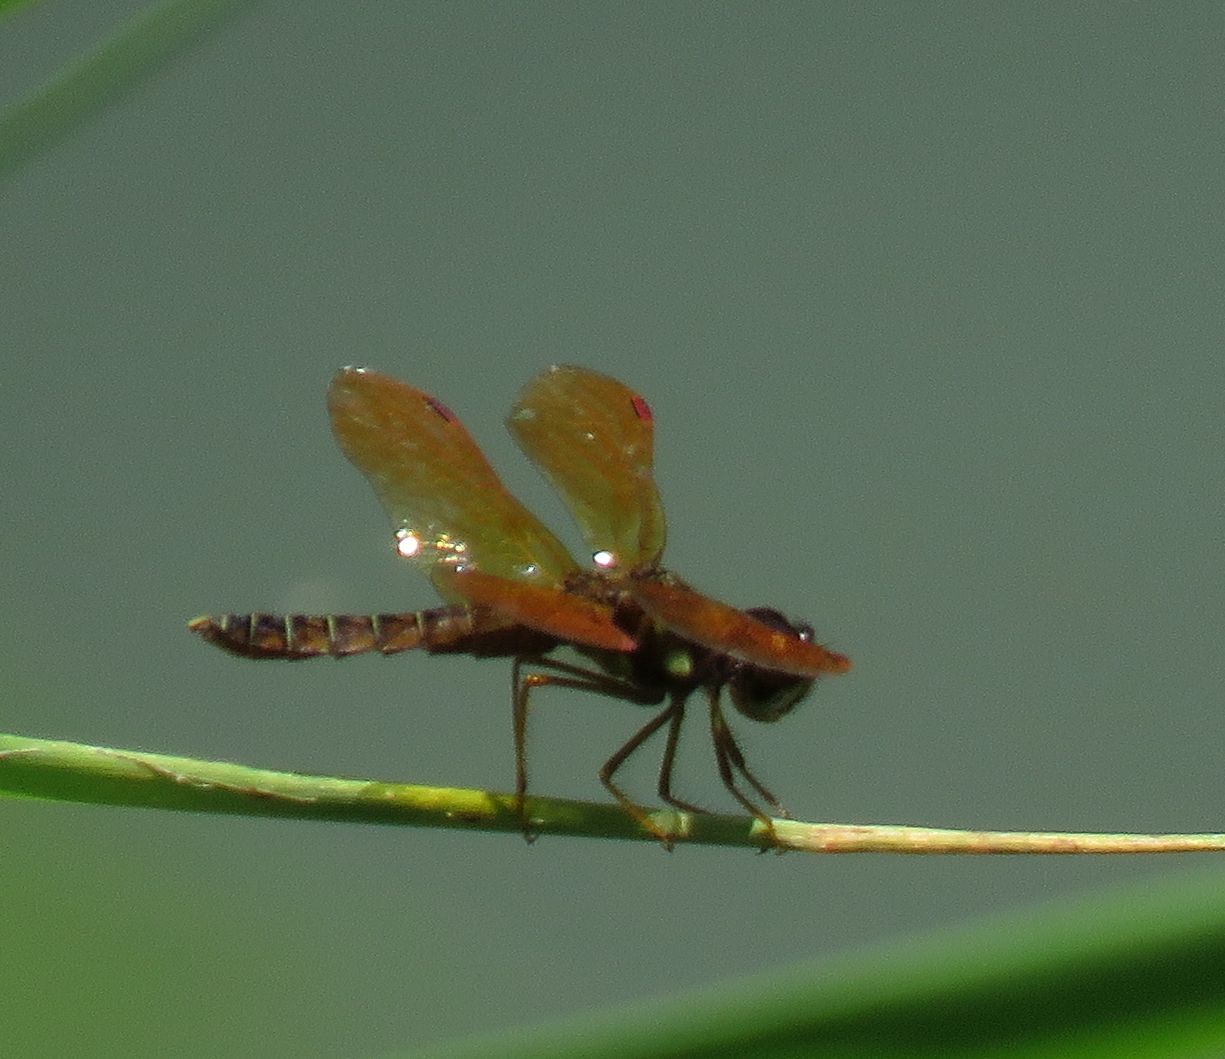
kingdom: Animalia
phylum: Arthropoda
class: Insecta
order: Odonata
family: Libellulidae
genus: Perithemis
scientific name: Perithemis tenera
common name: Eastern amberwing
